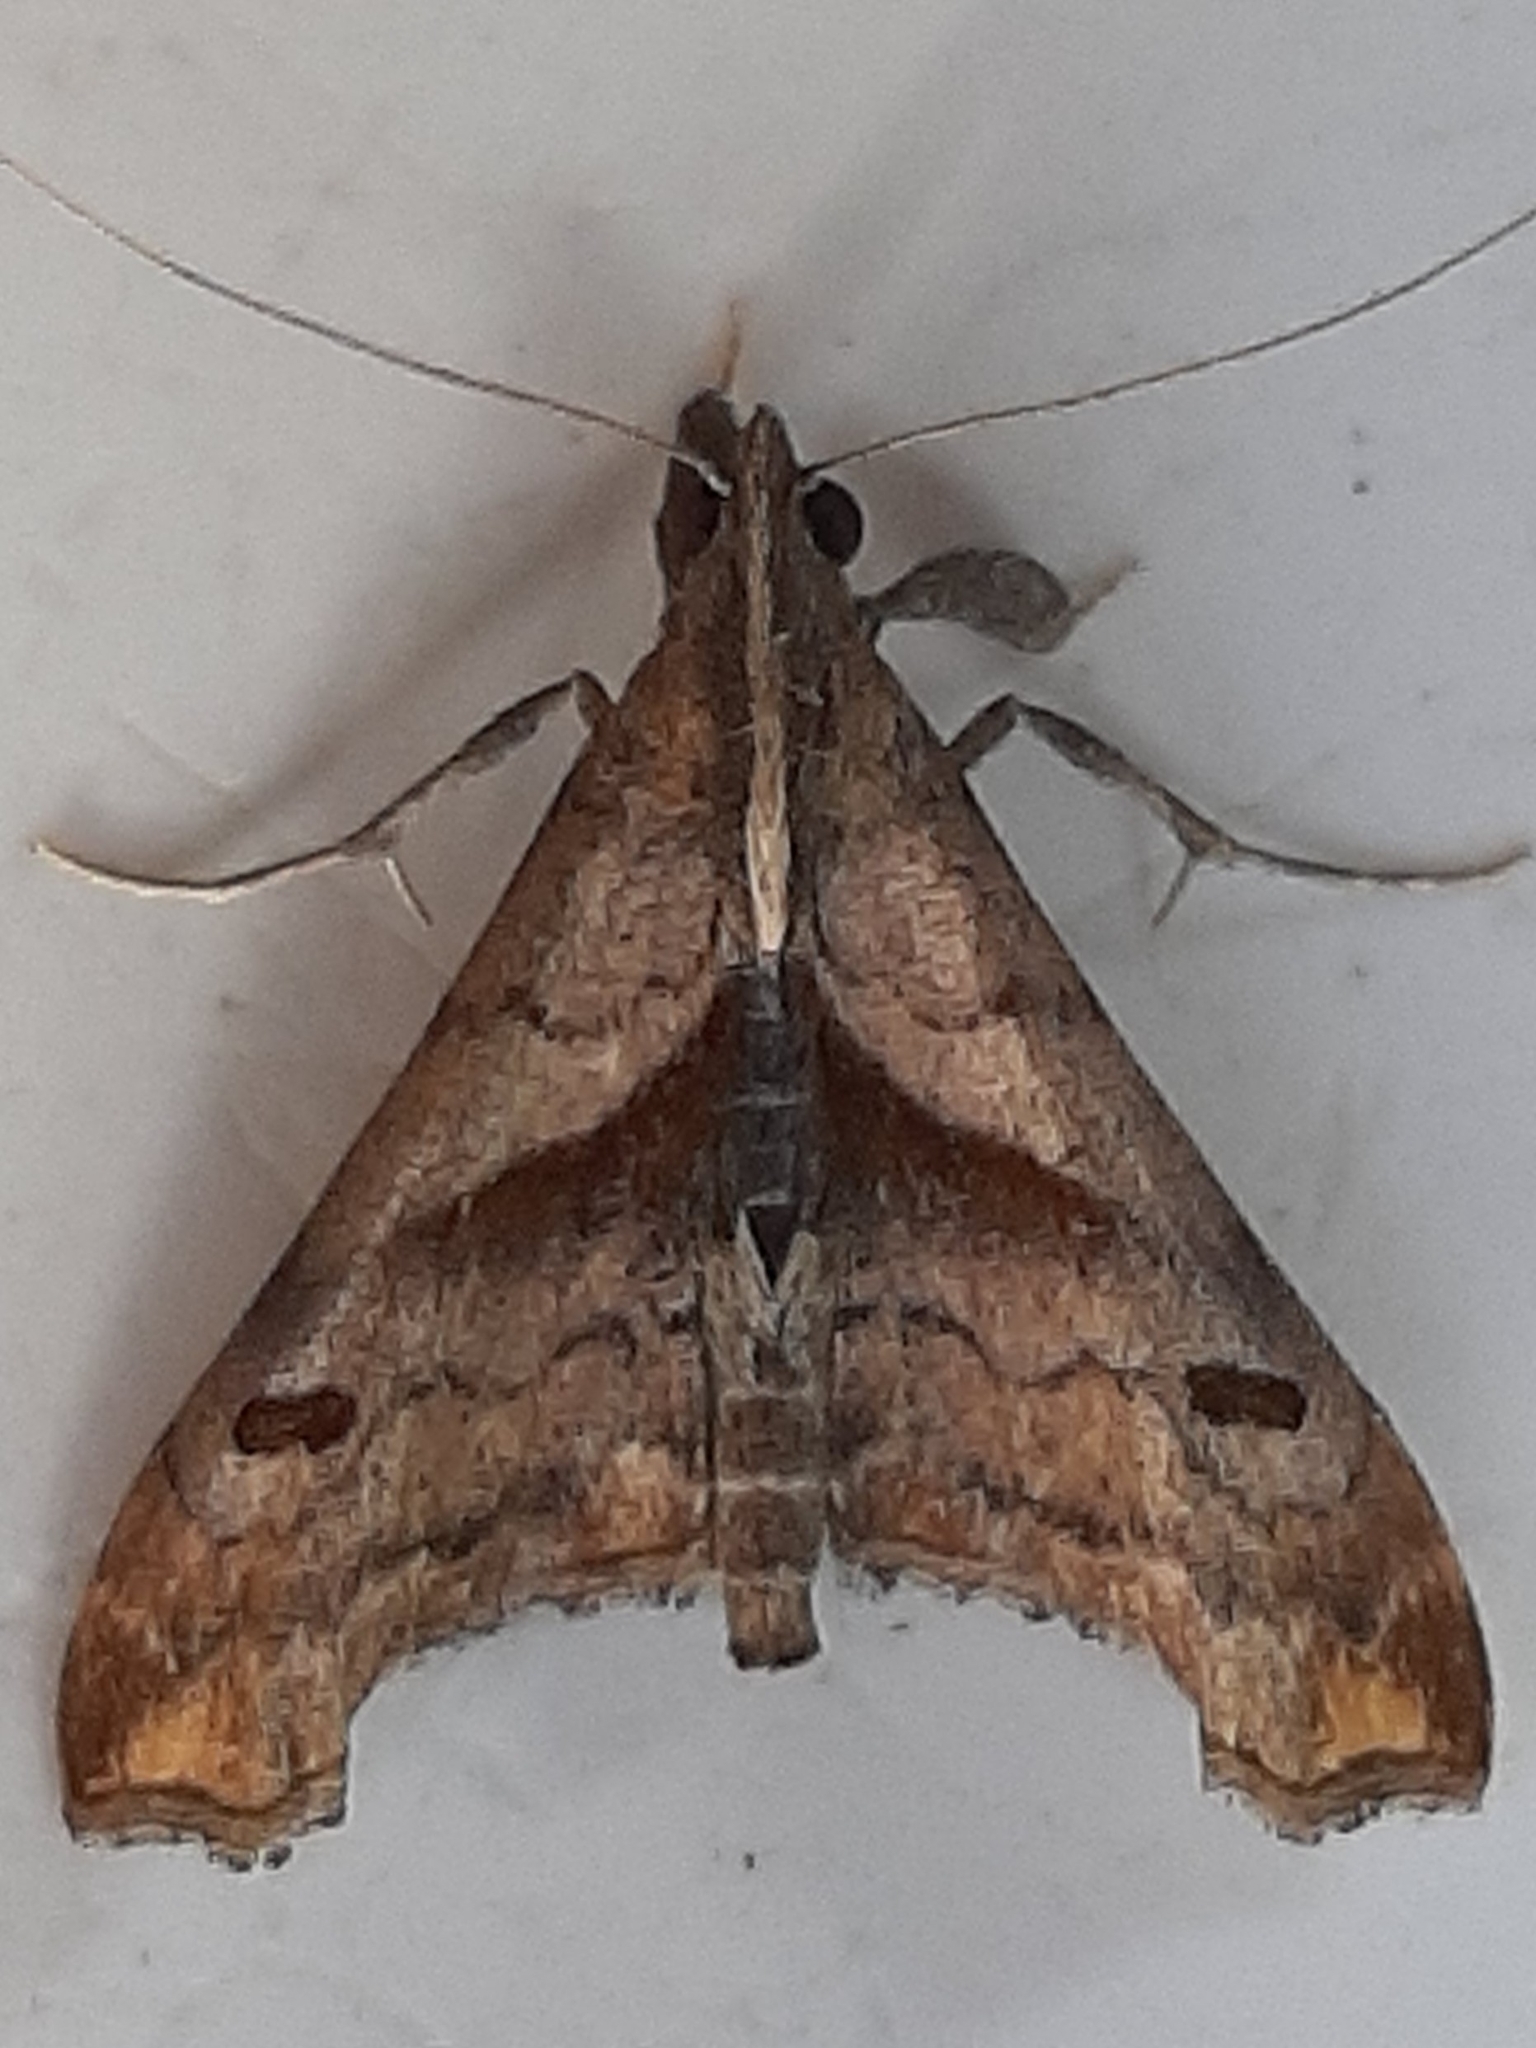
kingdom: Animalia
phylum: Arthropoda
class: Insecta
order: Lepidoptera
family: Erebidae
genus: Palthis
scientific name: Palthis angulalis
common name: Dark-spotted palthis moth
